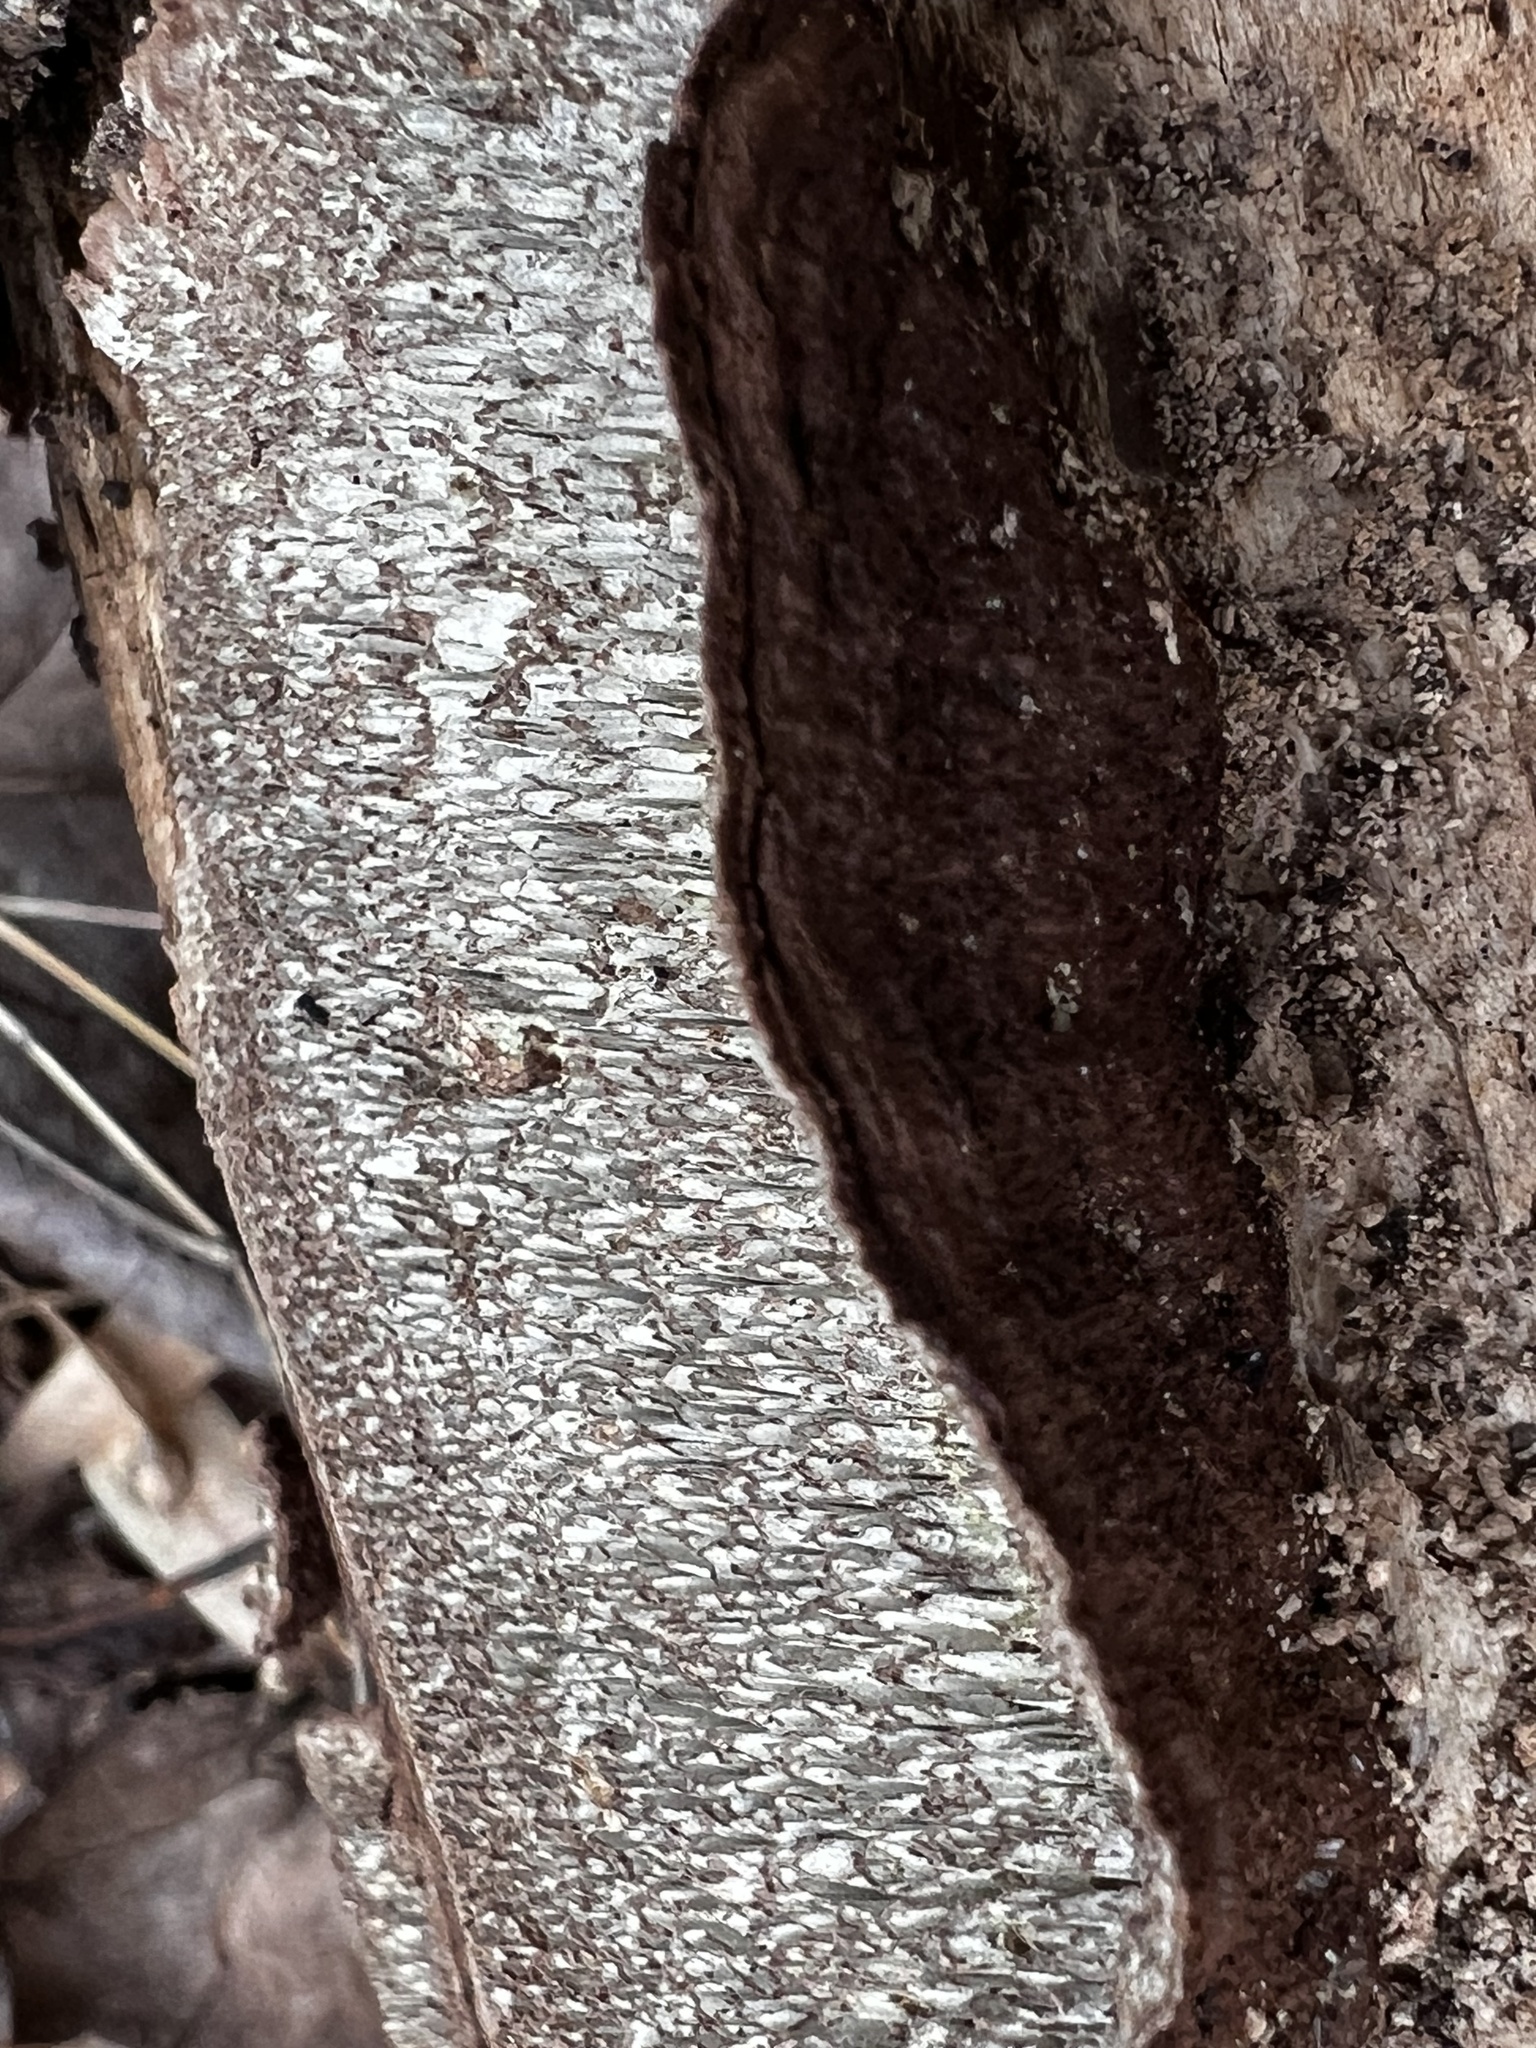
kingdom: Fungi
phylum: Basidiomycota
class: Agaricomycetes
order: Polyporales
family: Polyporaceae
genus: Dentocorticium
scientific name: Dentocorticium portoricense
